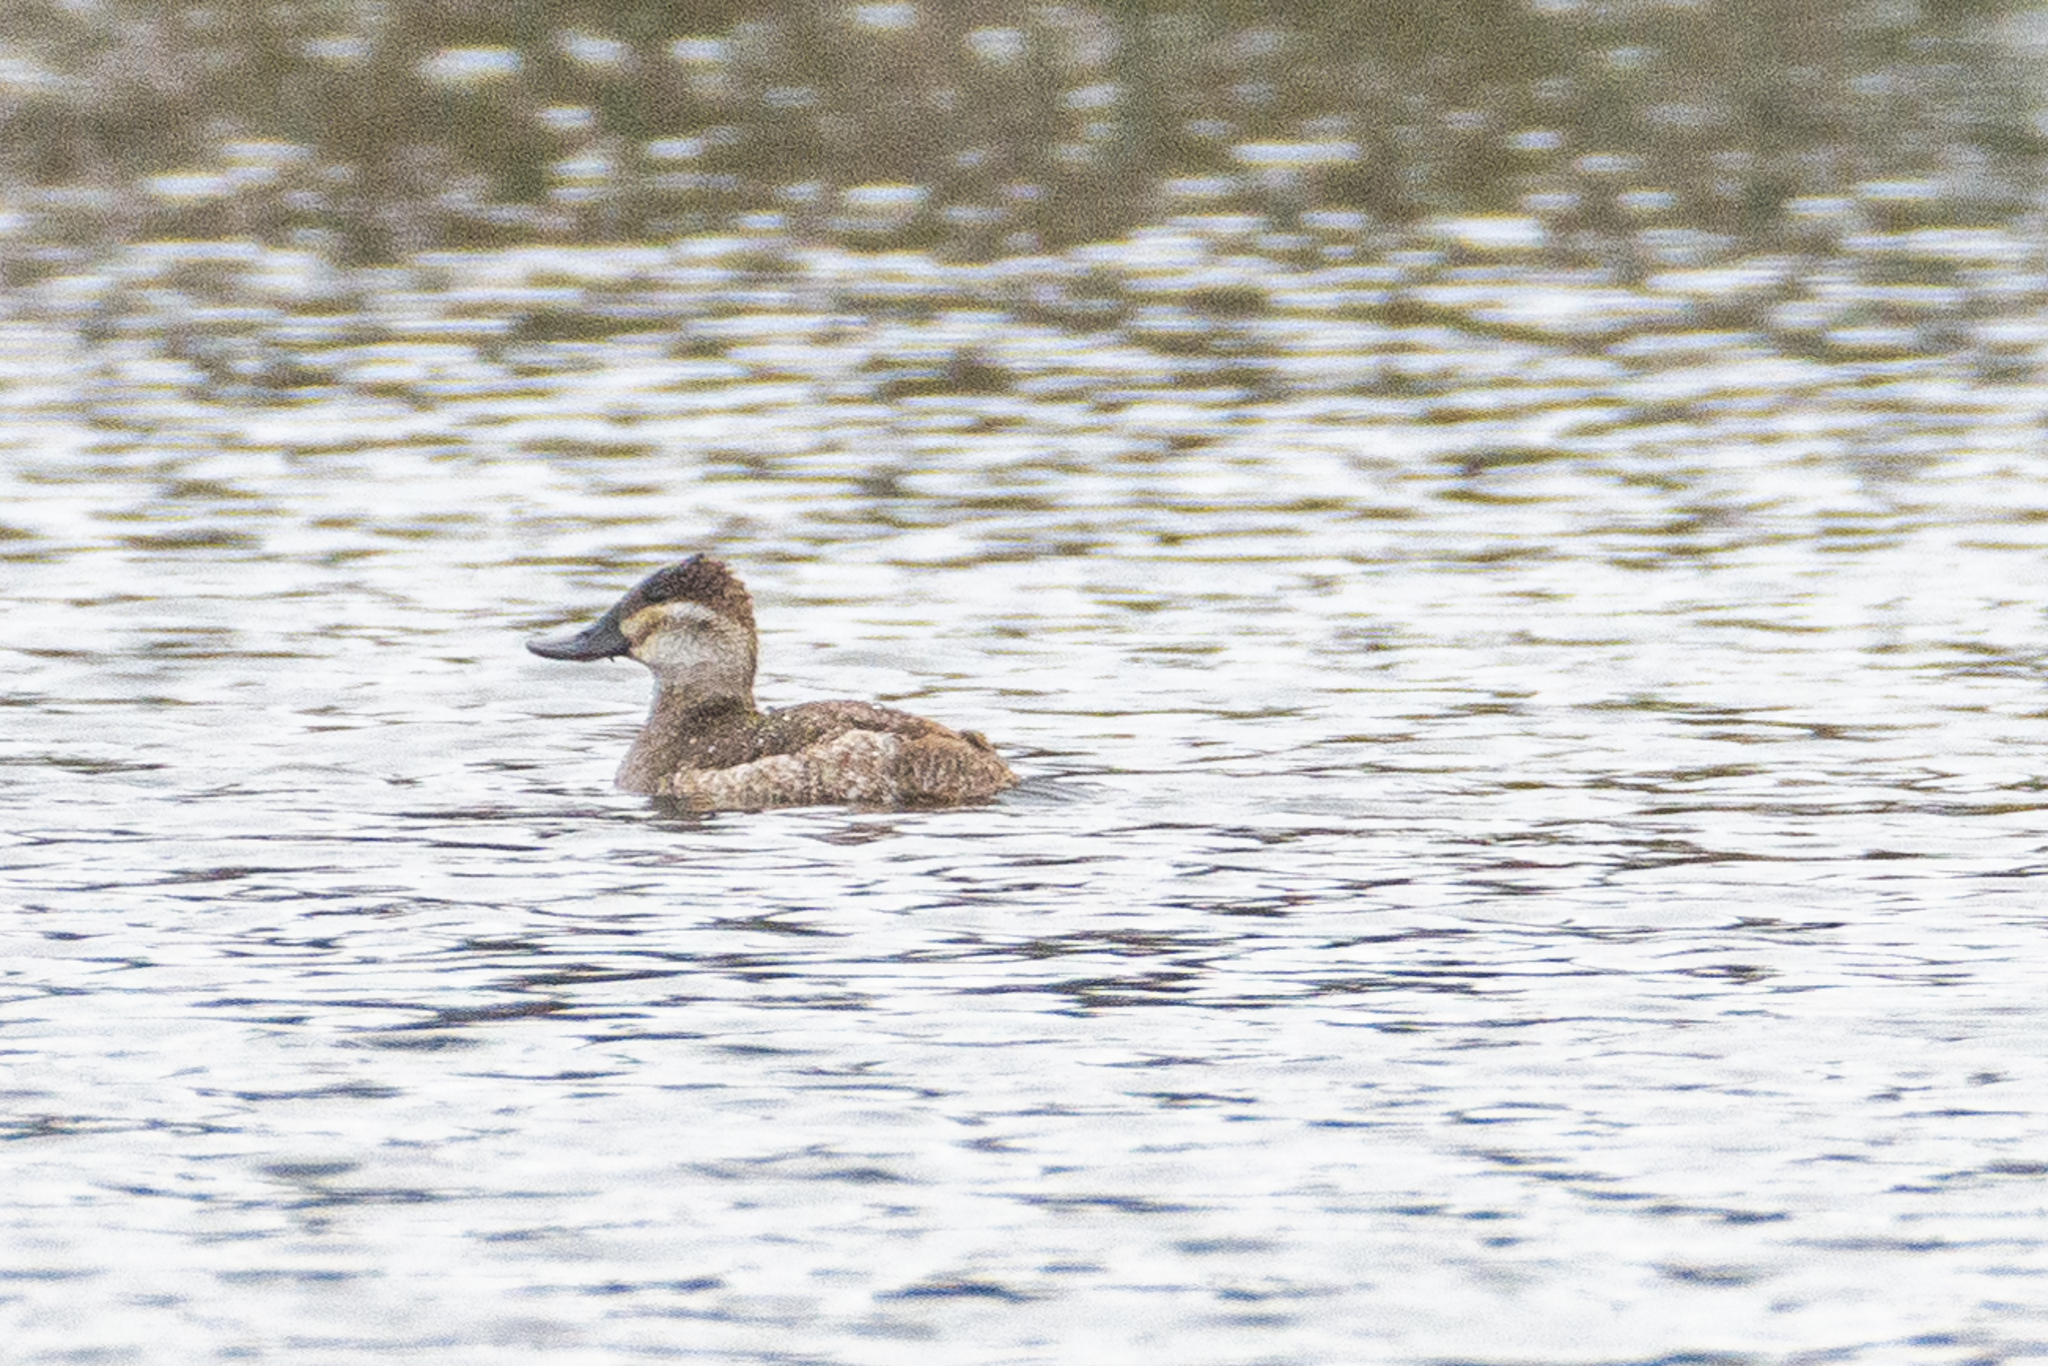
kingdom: Animalia
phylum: Chordata
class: Aves
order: Anseriformes
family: Anatidae
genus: Oxyura
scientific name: Oxyura jamaicensis
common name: Ruddy duck
